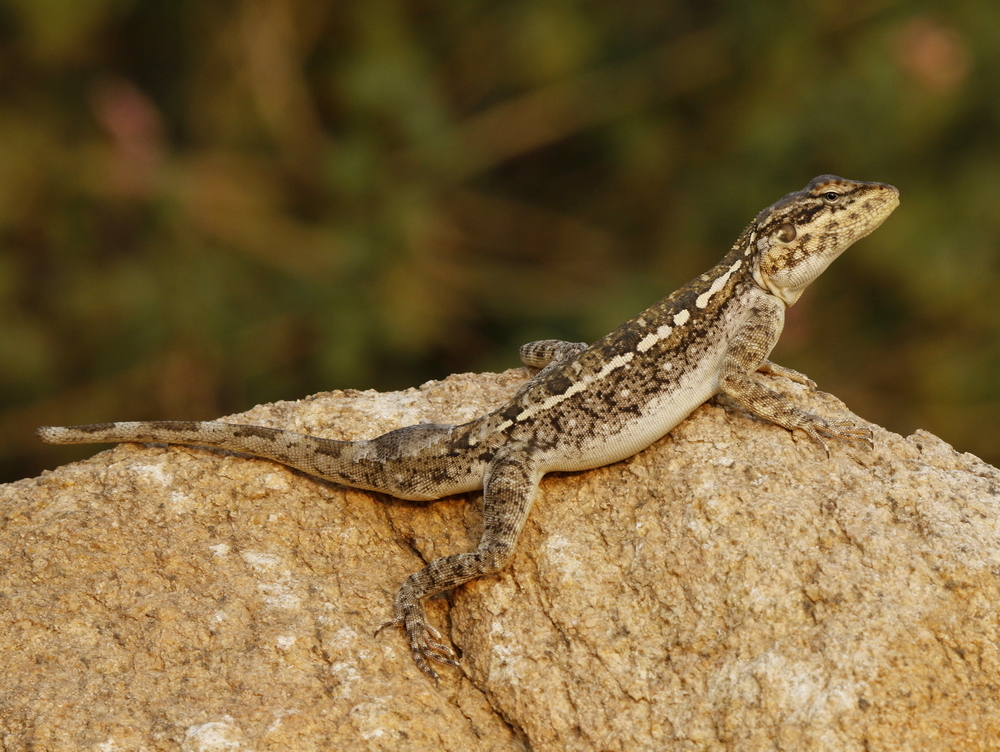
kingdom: Animalia
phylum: Chordata
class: Squamata
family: Agamidae
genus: Psammophilus
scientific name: Psammophilus dorsalis
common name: South indian rock agama
